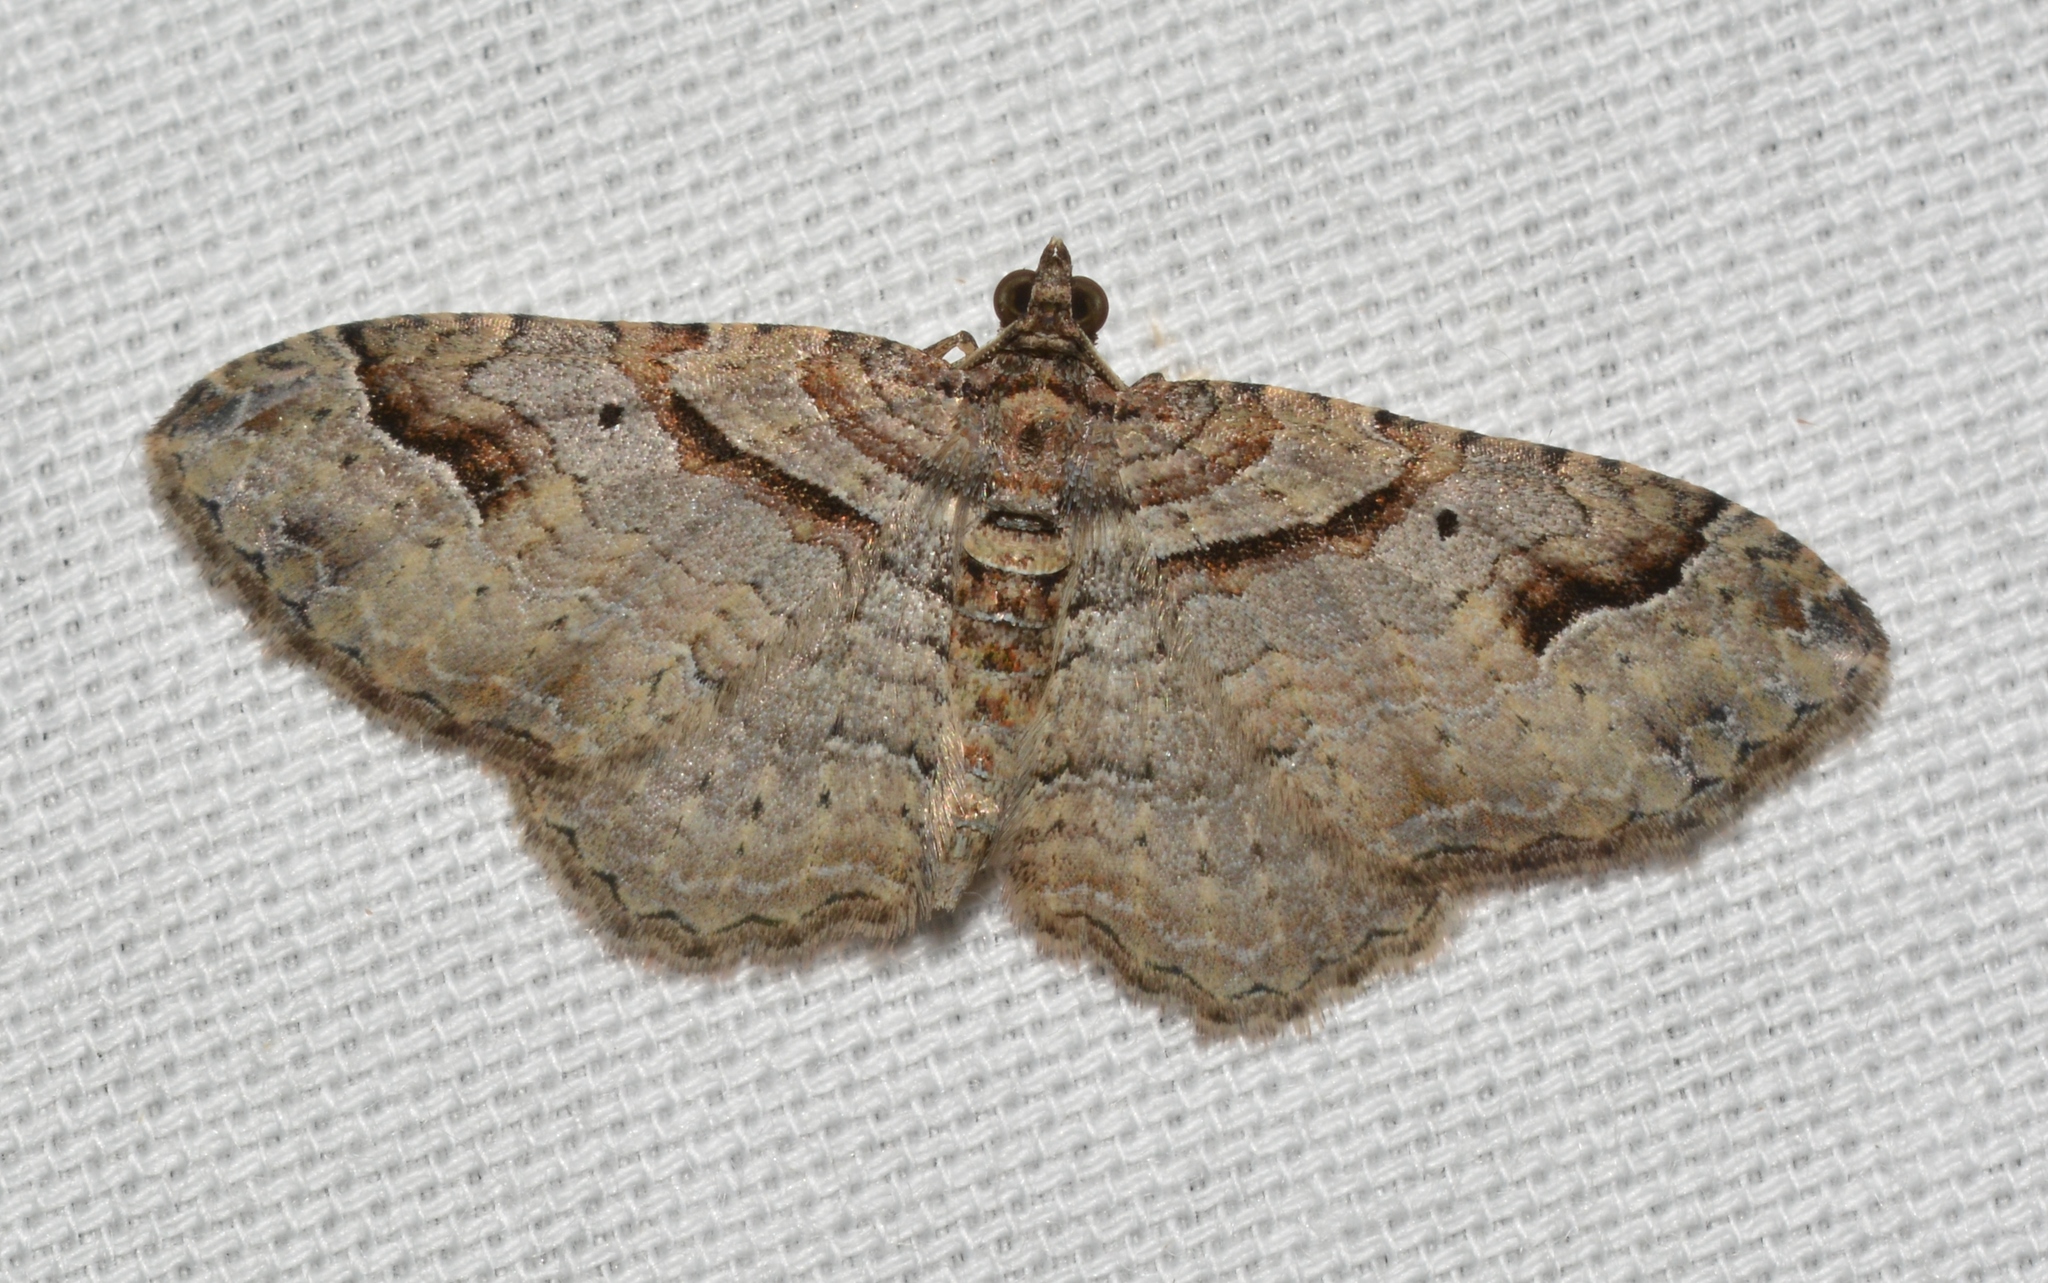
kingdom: Animalia
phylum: Arthropoda
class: Insecta
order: Lepidoptera
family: Geometridae
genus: Costaconvexa
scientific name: Costaconvexa centrostrigaria
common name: Bent-line carpet
